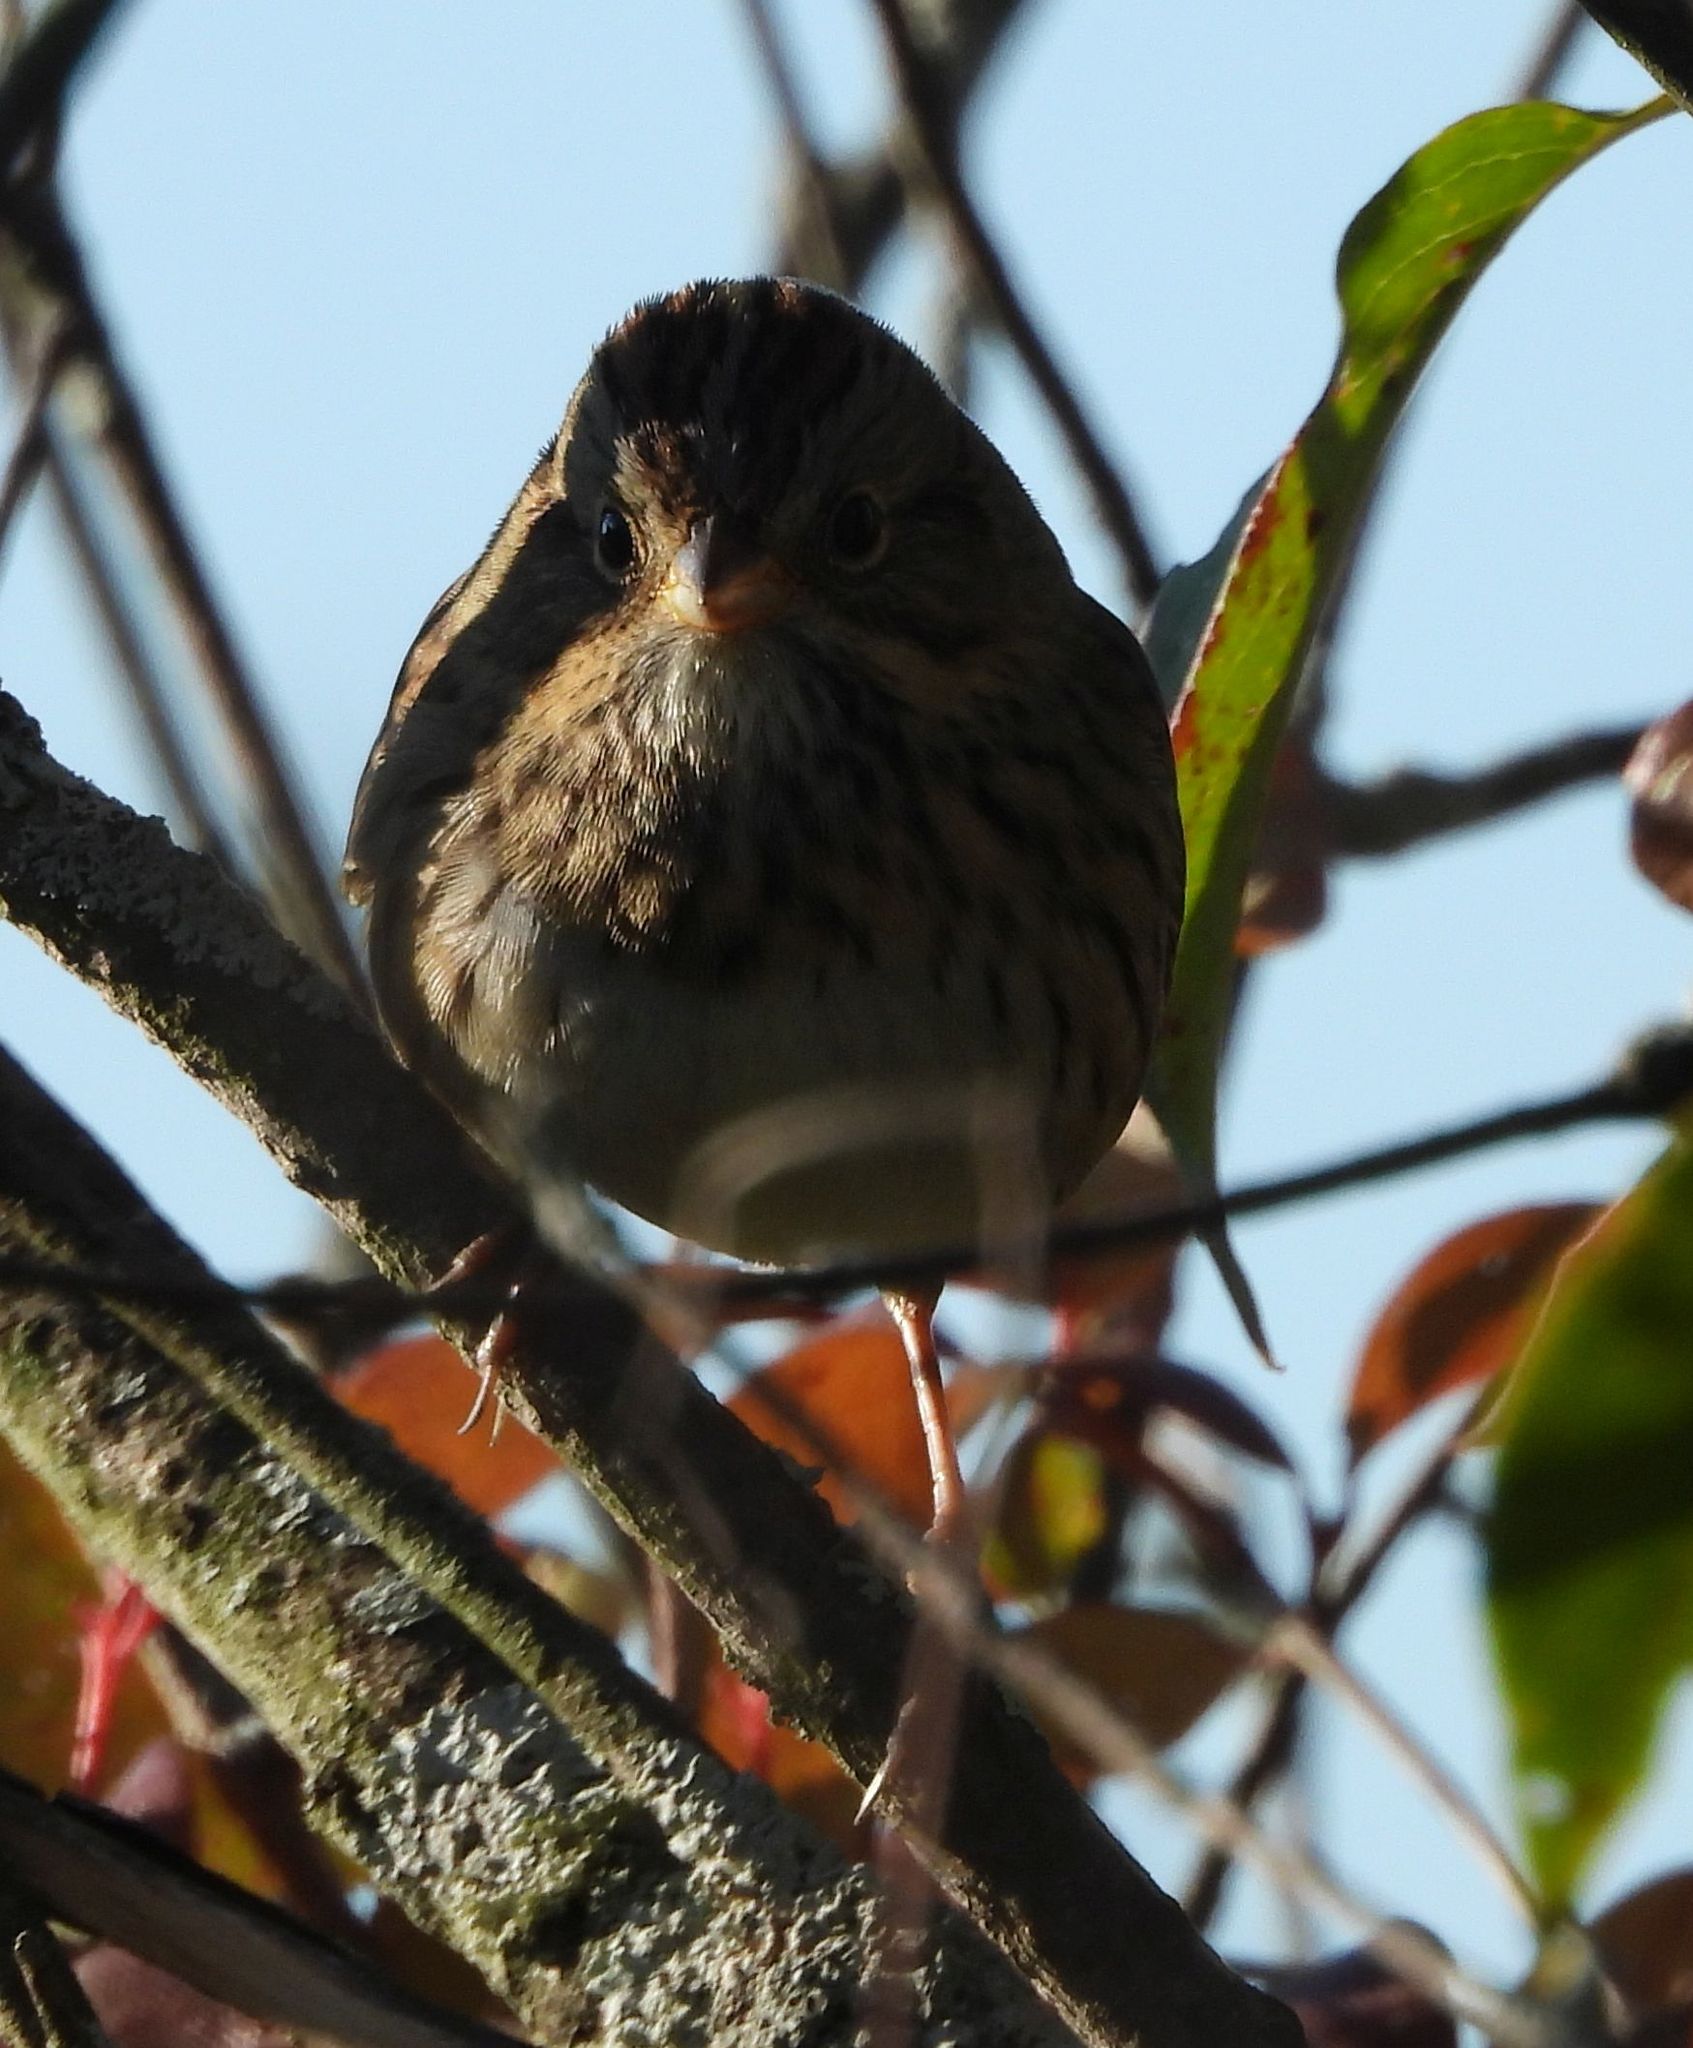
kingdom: Animalia
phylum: Chordata
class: Aves
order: Passeriformes
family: Passerellidae
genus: Melospiza
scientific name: Melospiza lincolnii
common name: Lincoln's sparrow
